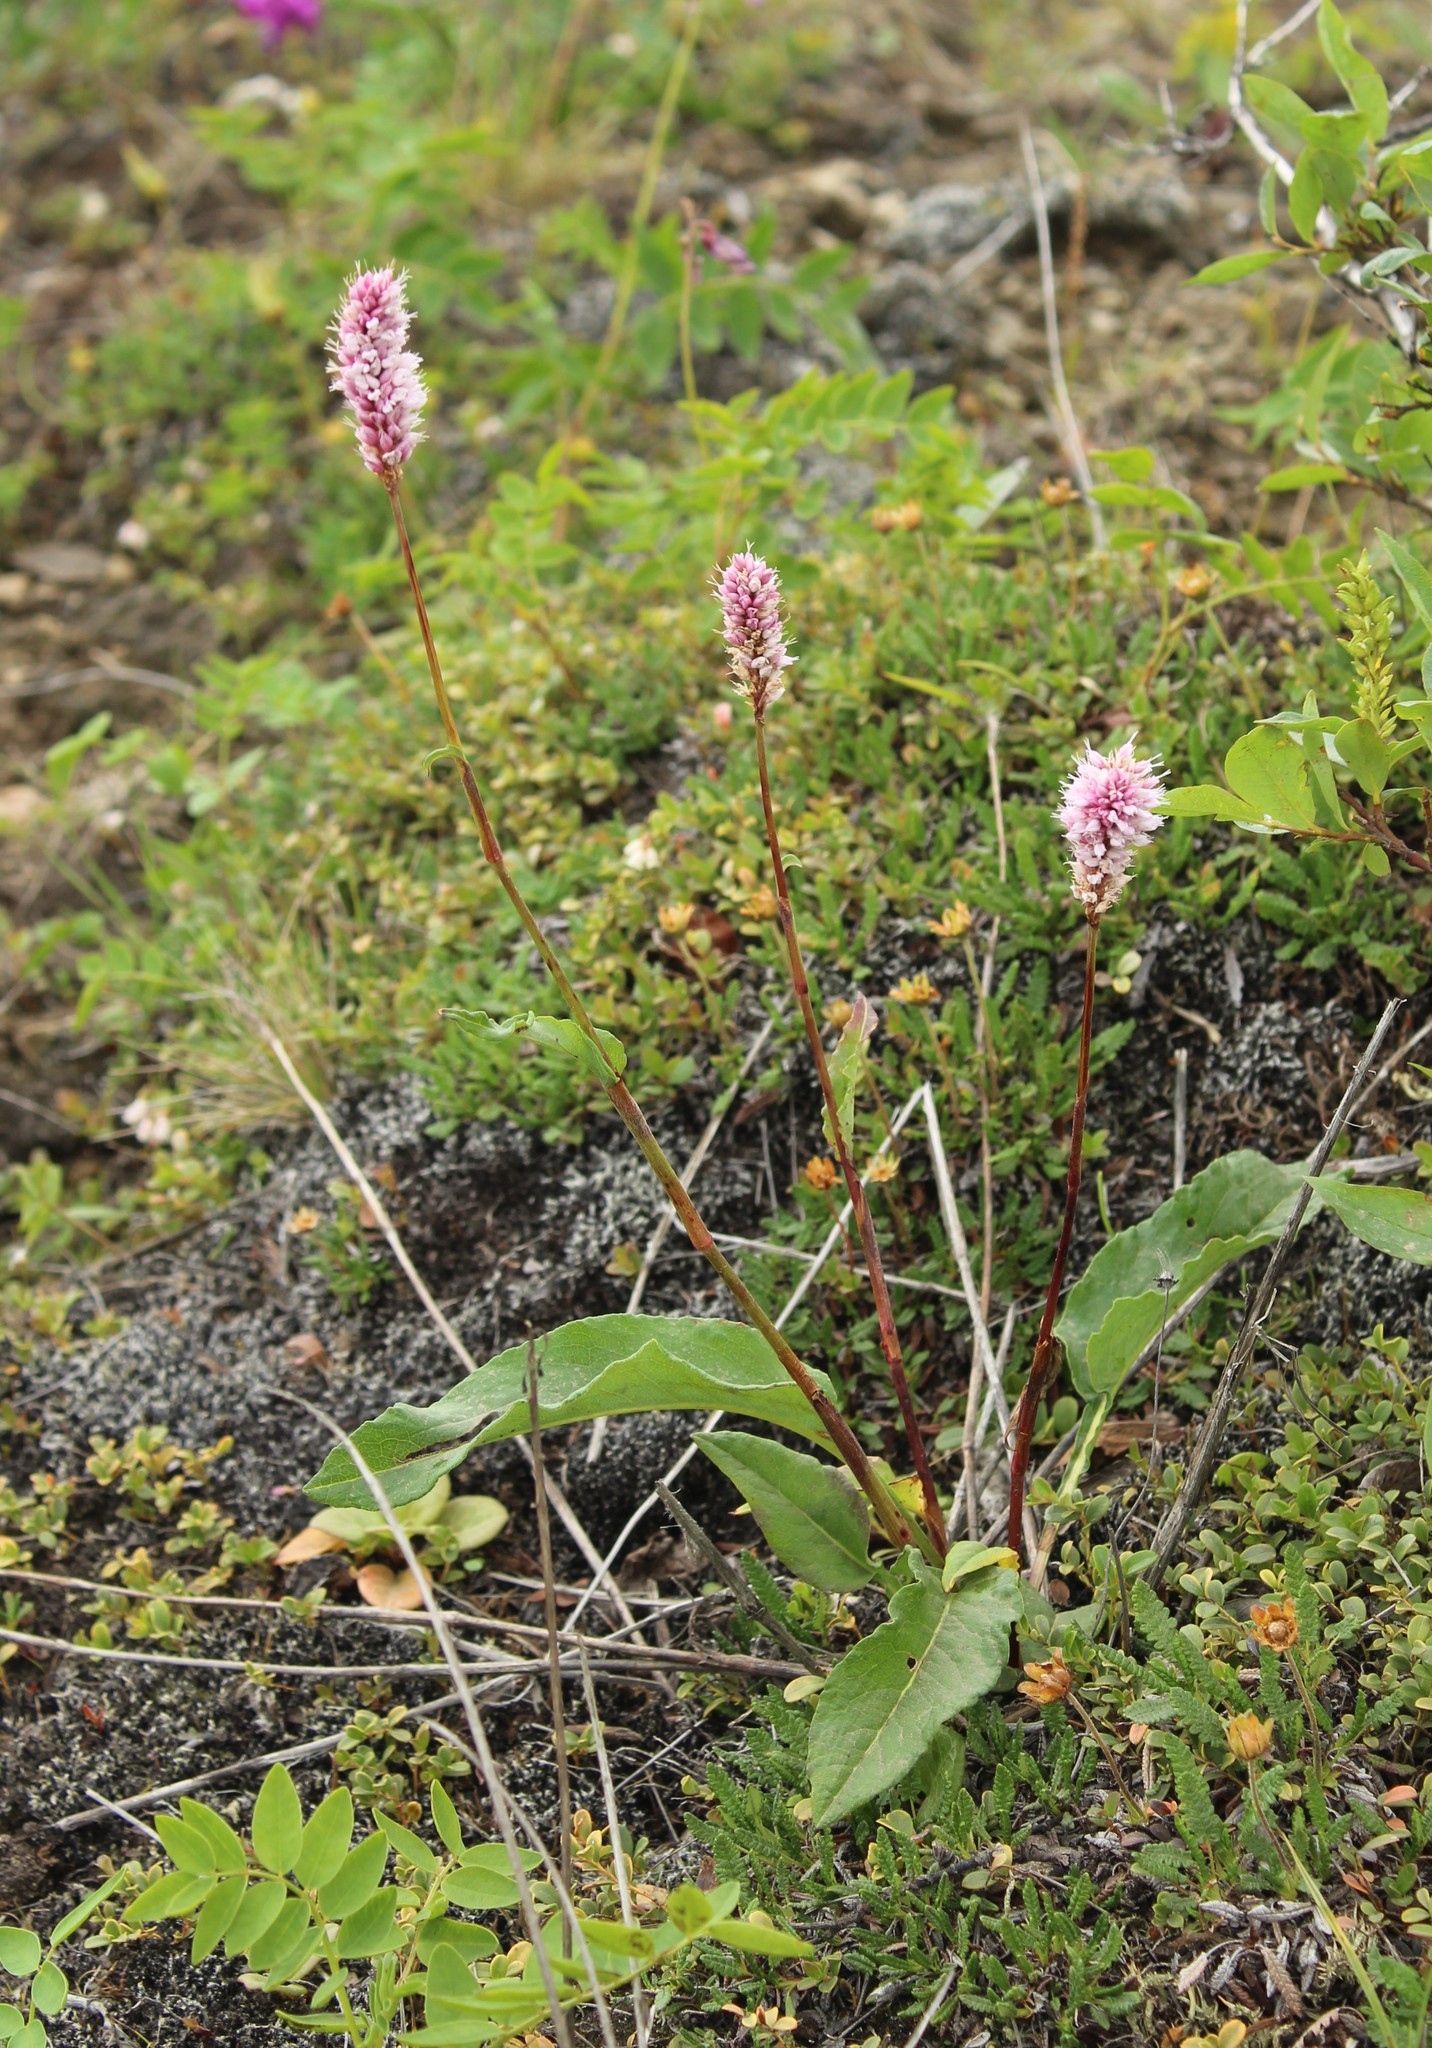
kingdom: Plantae
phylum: Tracheophyta
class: Magnoliopsida
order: Caryophyllales
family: Polygonaceae
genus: Bistorta
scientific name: Bistorta officinalis
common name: Common bistort
